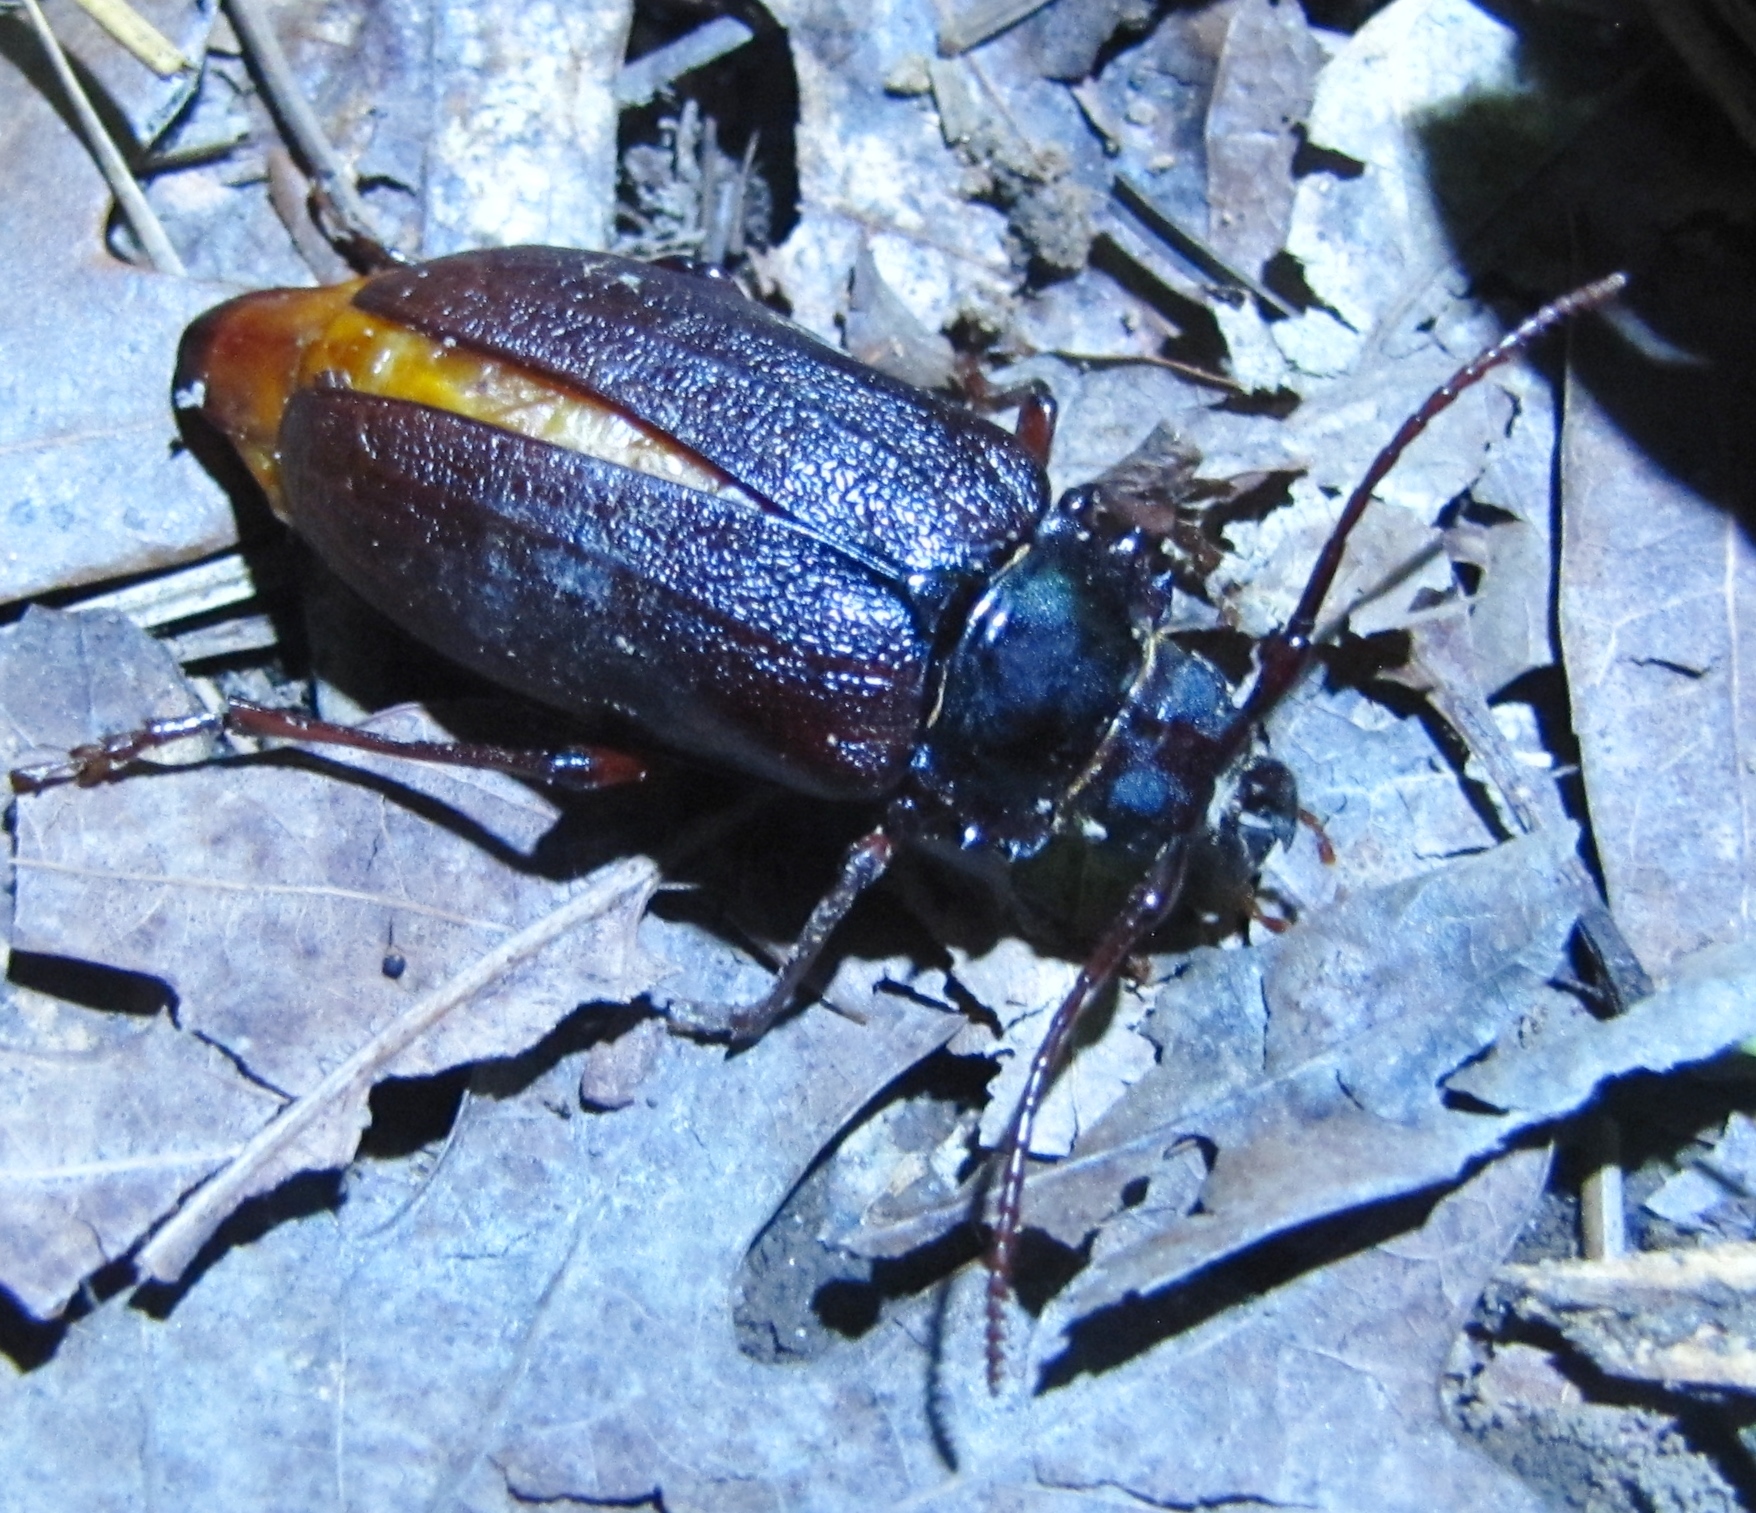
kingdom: Animalia
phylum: Arthropoda
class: Insecta
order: Coleoptera
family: Cerambycidae
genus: Prionus
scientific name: Prionus imbricornis
